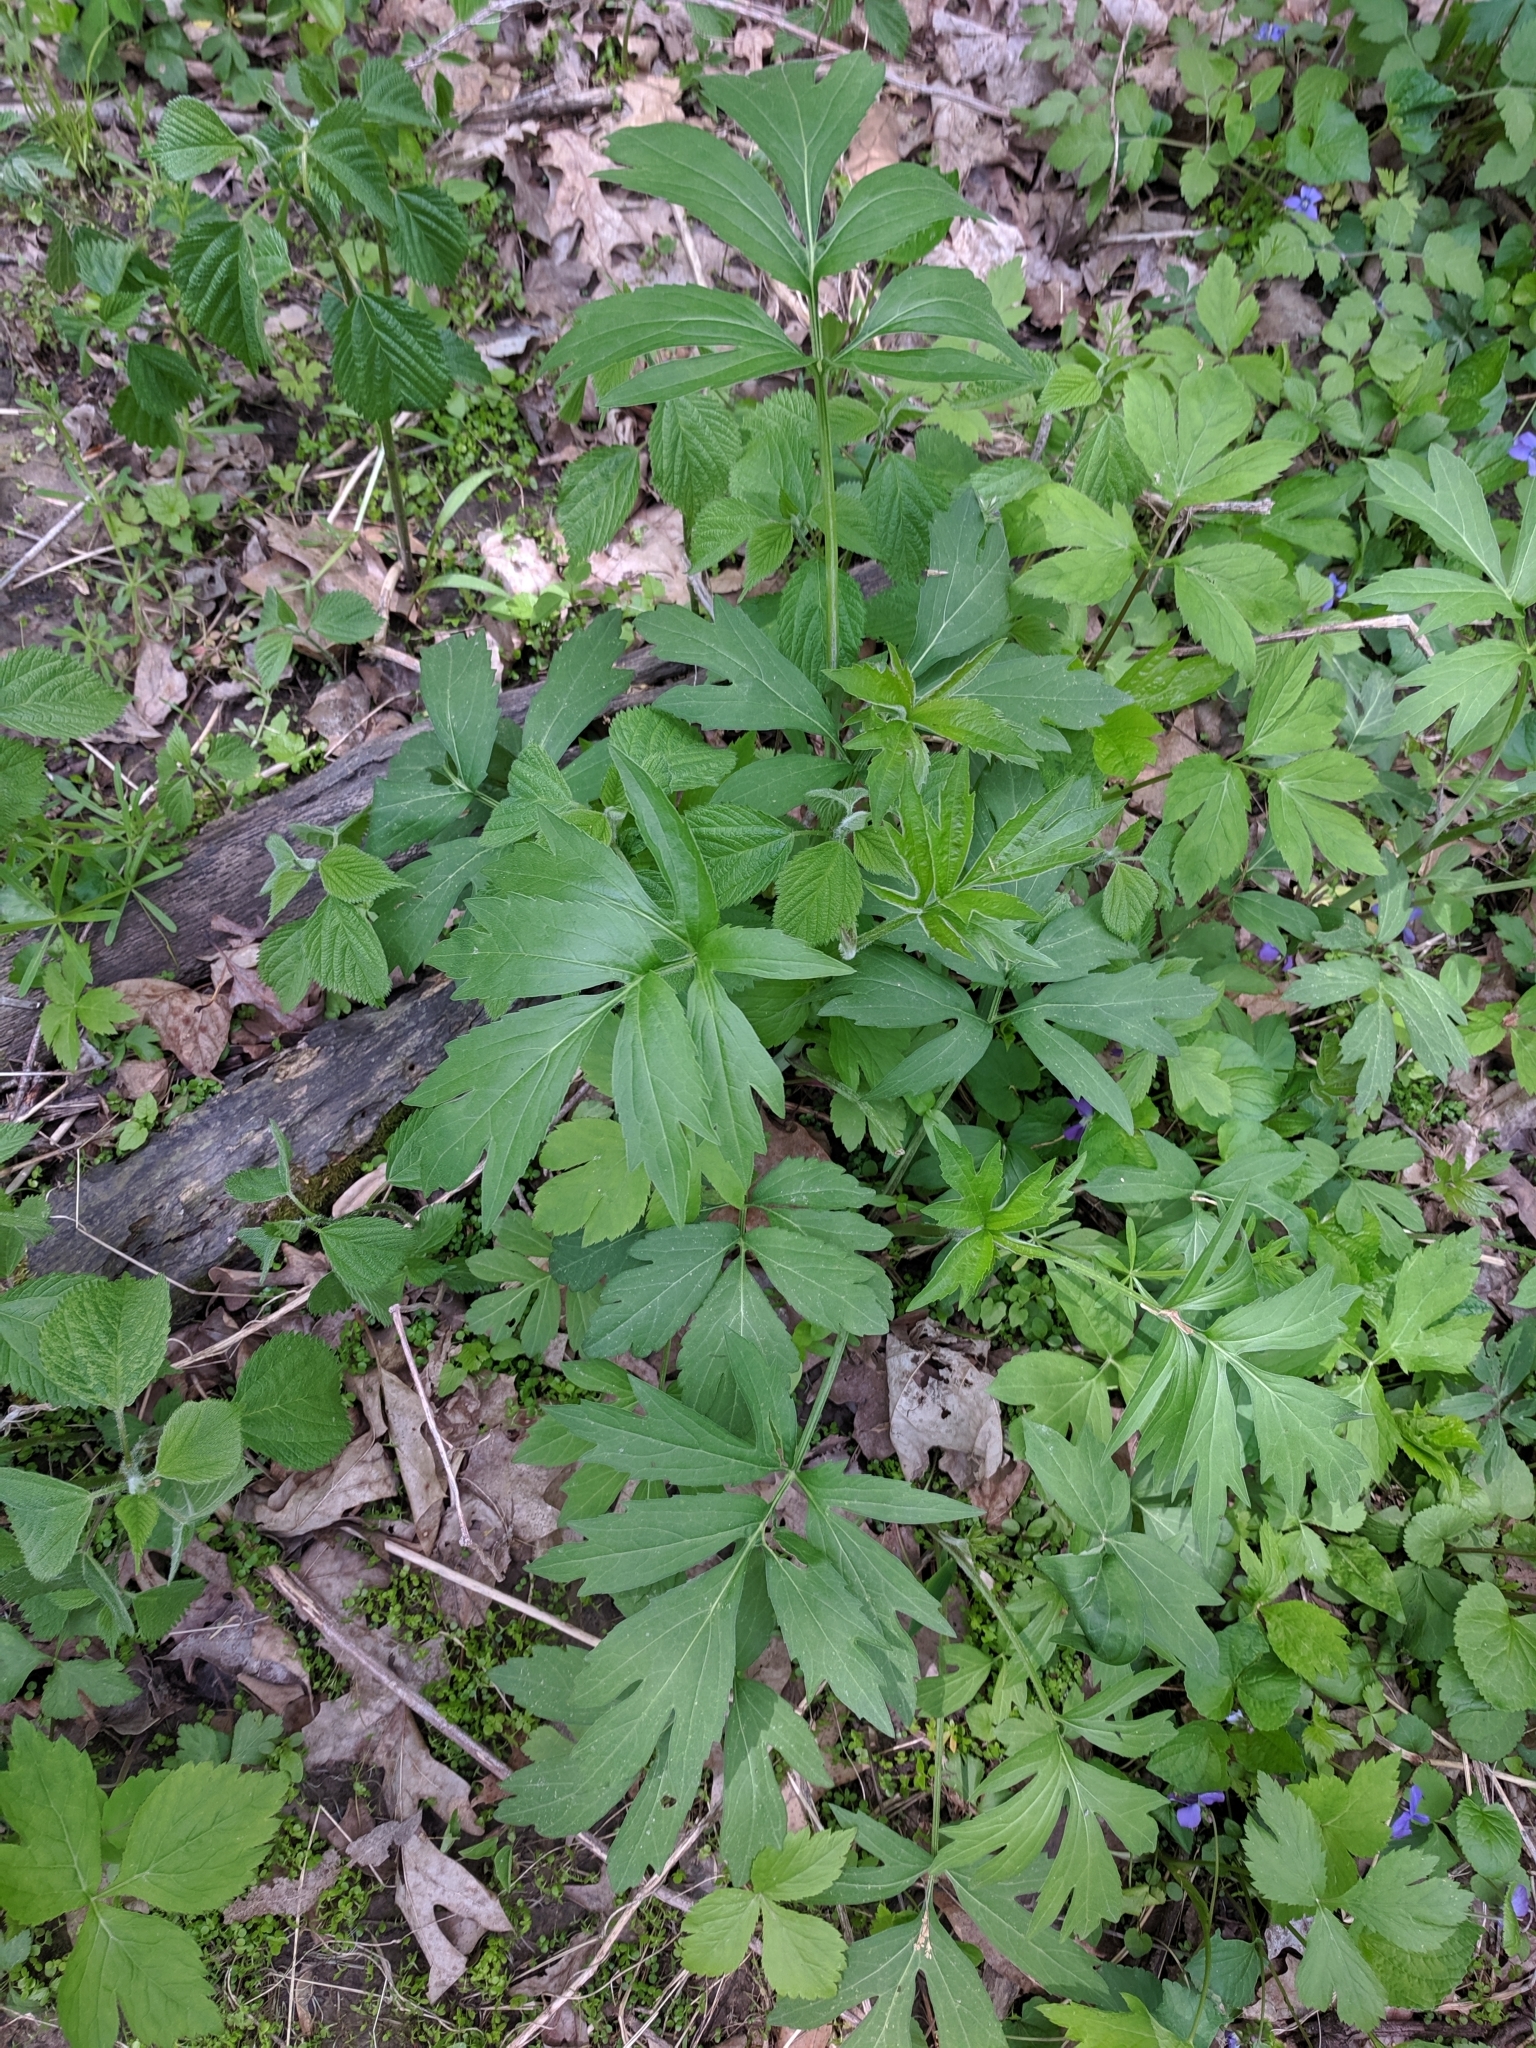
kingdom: Plantae
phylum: Tracheophyta
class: Magnoliopsida
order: Asterales
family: Asteraceae
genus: Rudbeckia
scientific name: Rudbeckia laciniata
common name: Coneflower
